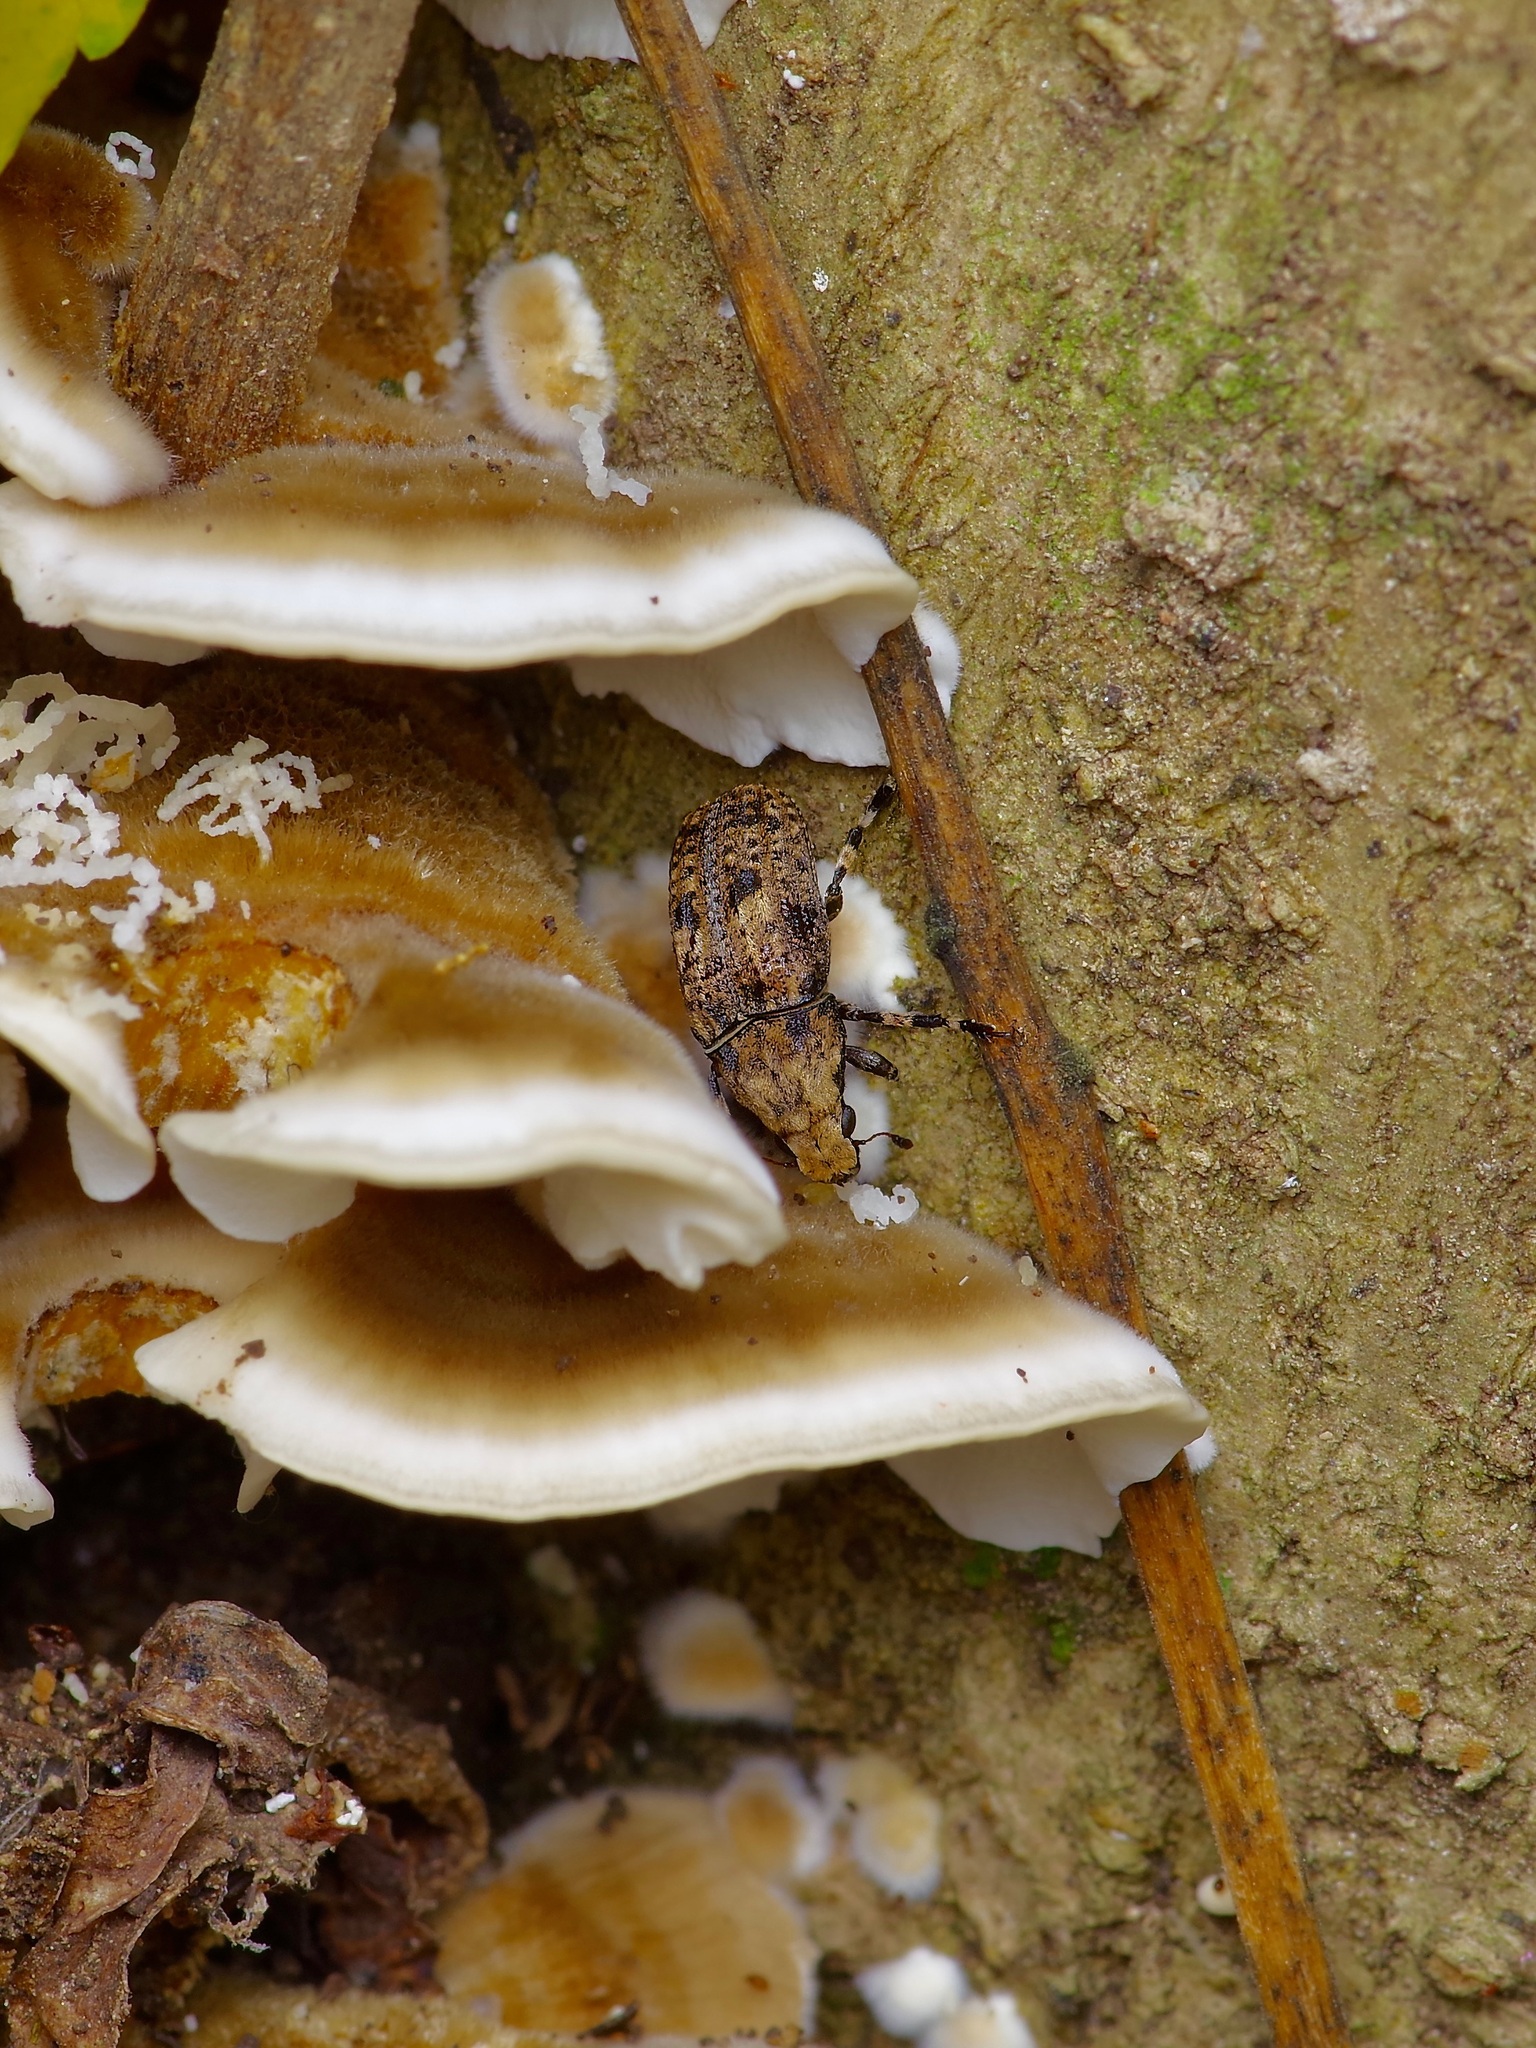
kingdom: Animalia
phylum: Arthropoda
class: Insecta
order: Coleoptera
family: Anthribidae
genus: Euparius
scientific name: Euparius marmoreus
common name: Marbled fungus weevil
